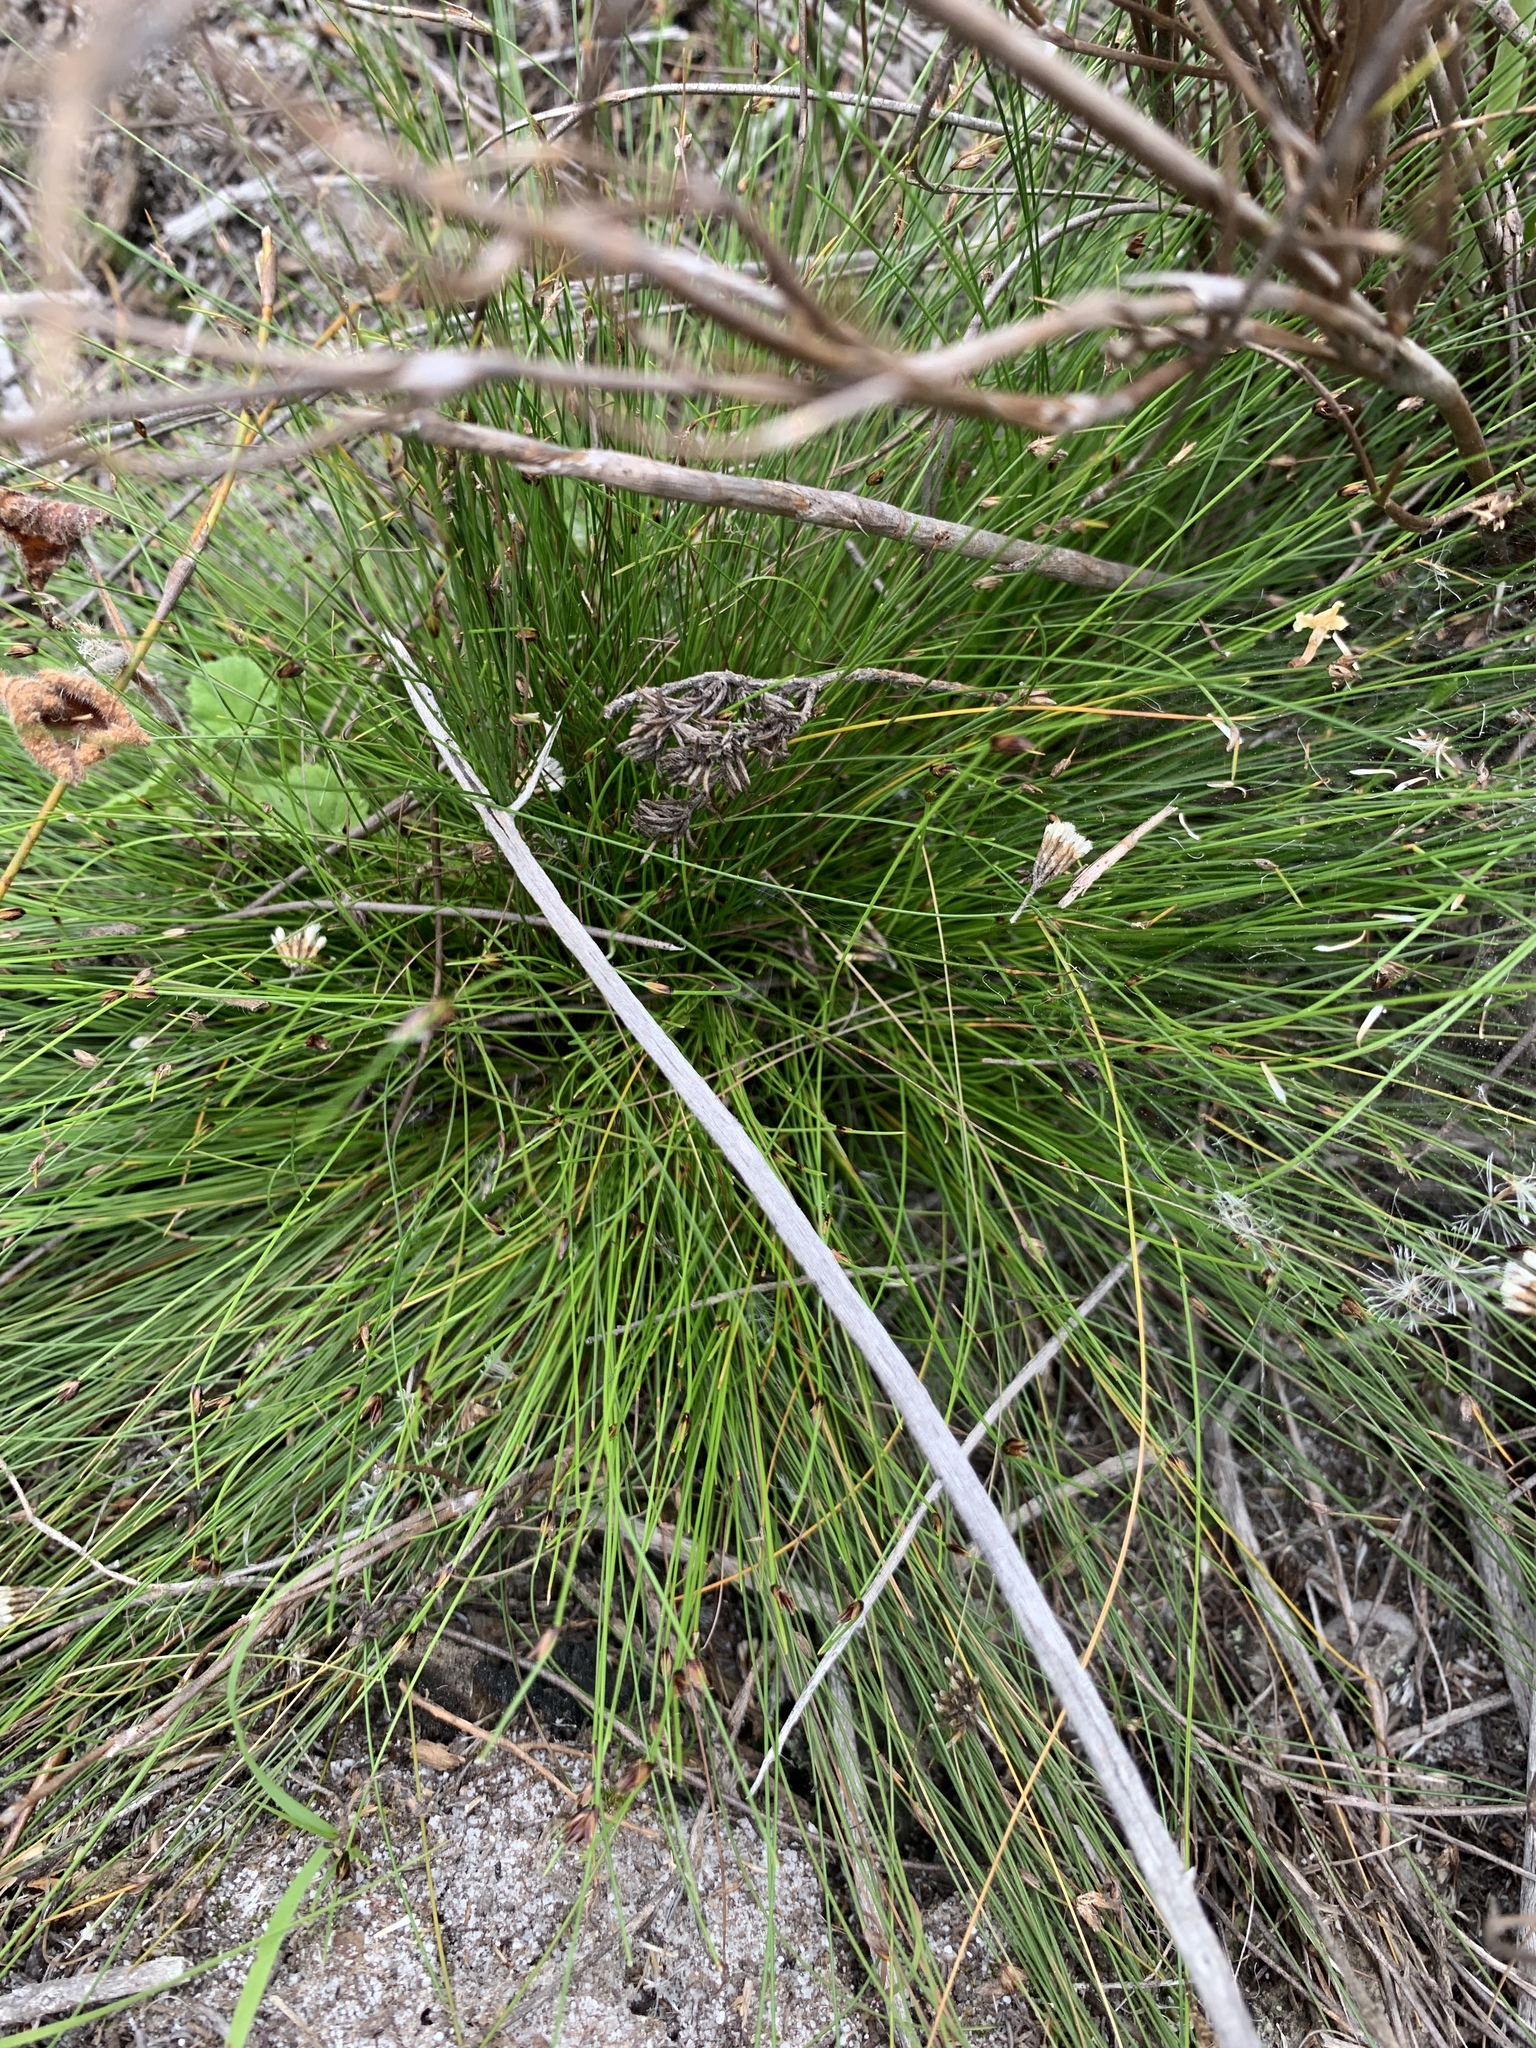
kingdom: Plantae
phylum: Tracheophyta
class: Liliopsida
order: Poales
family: Cyperaceae
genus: Ficinia
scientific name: Ficinia oligantha
